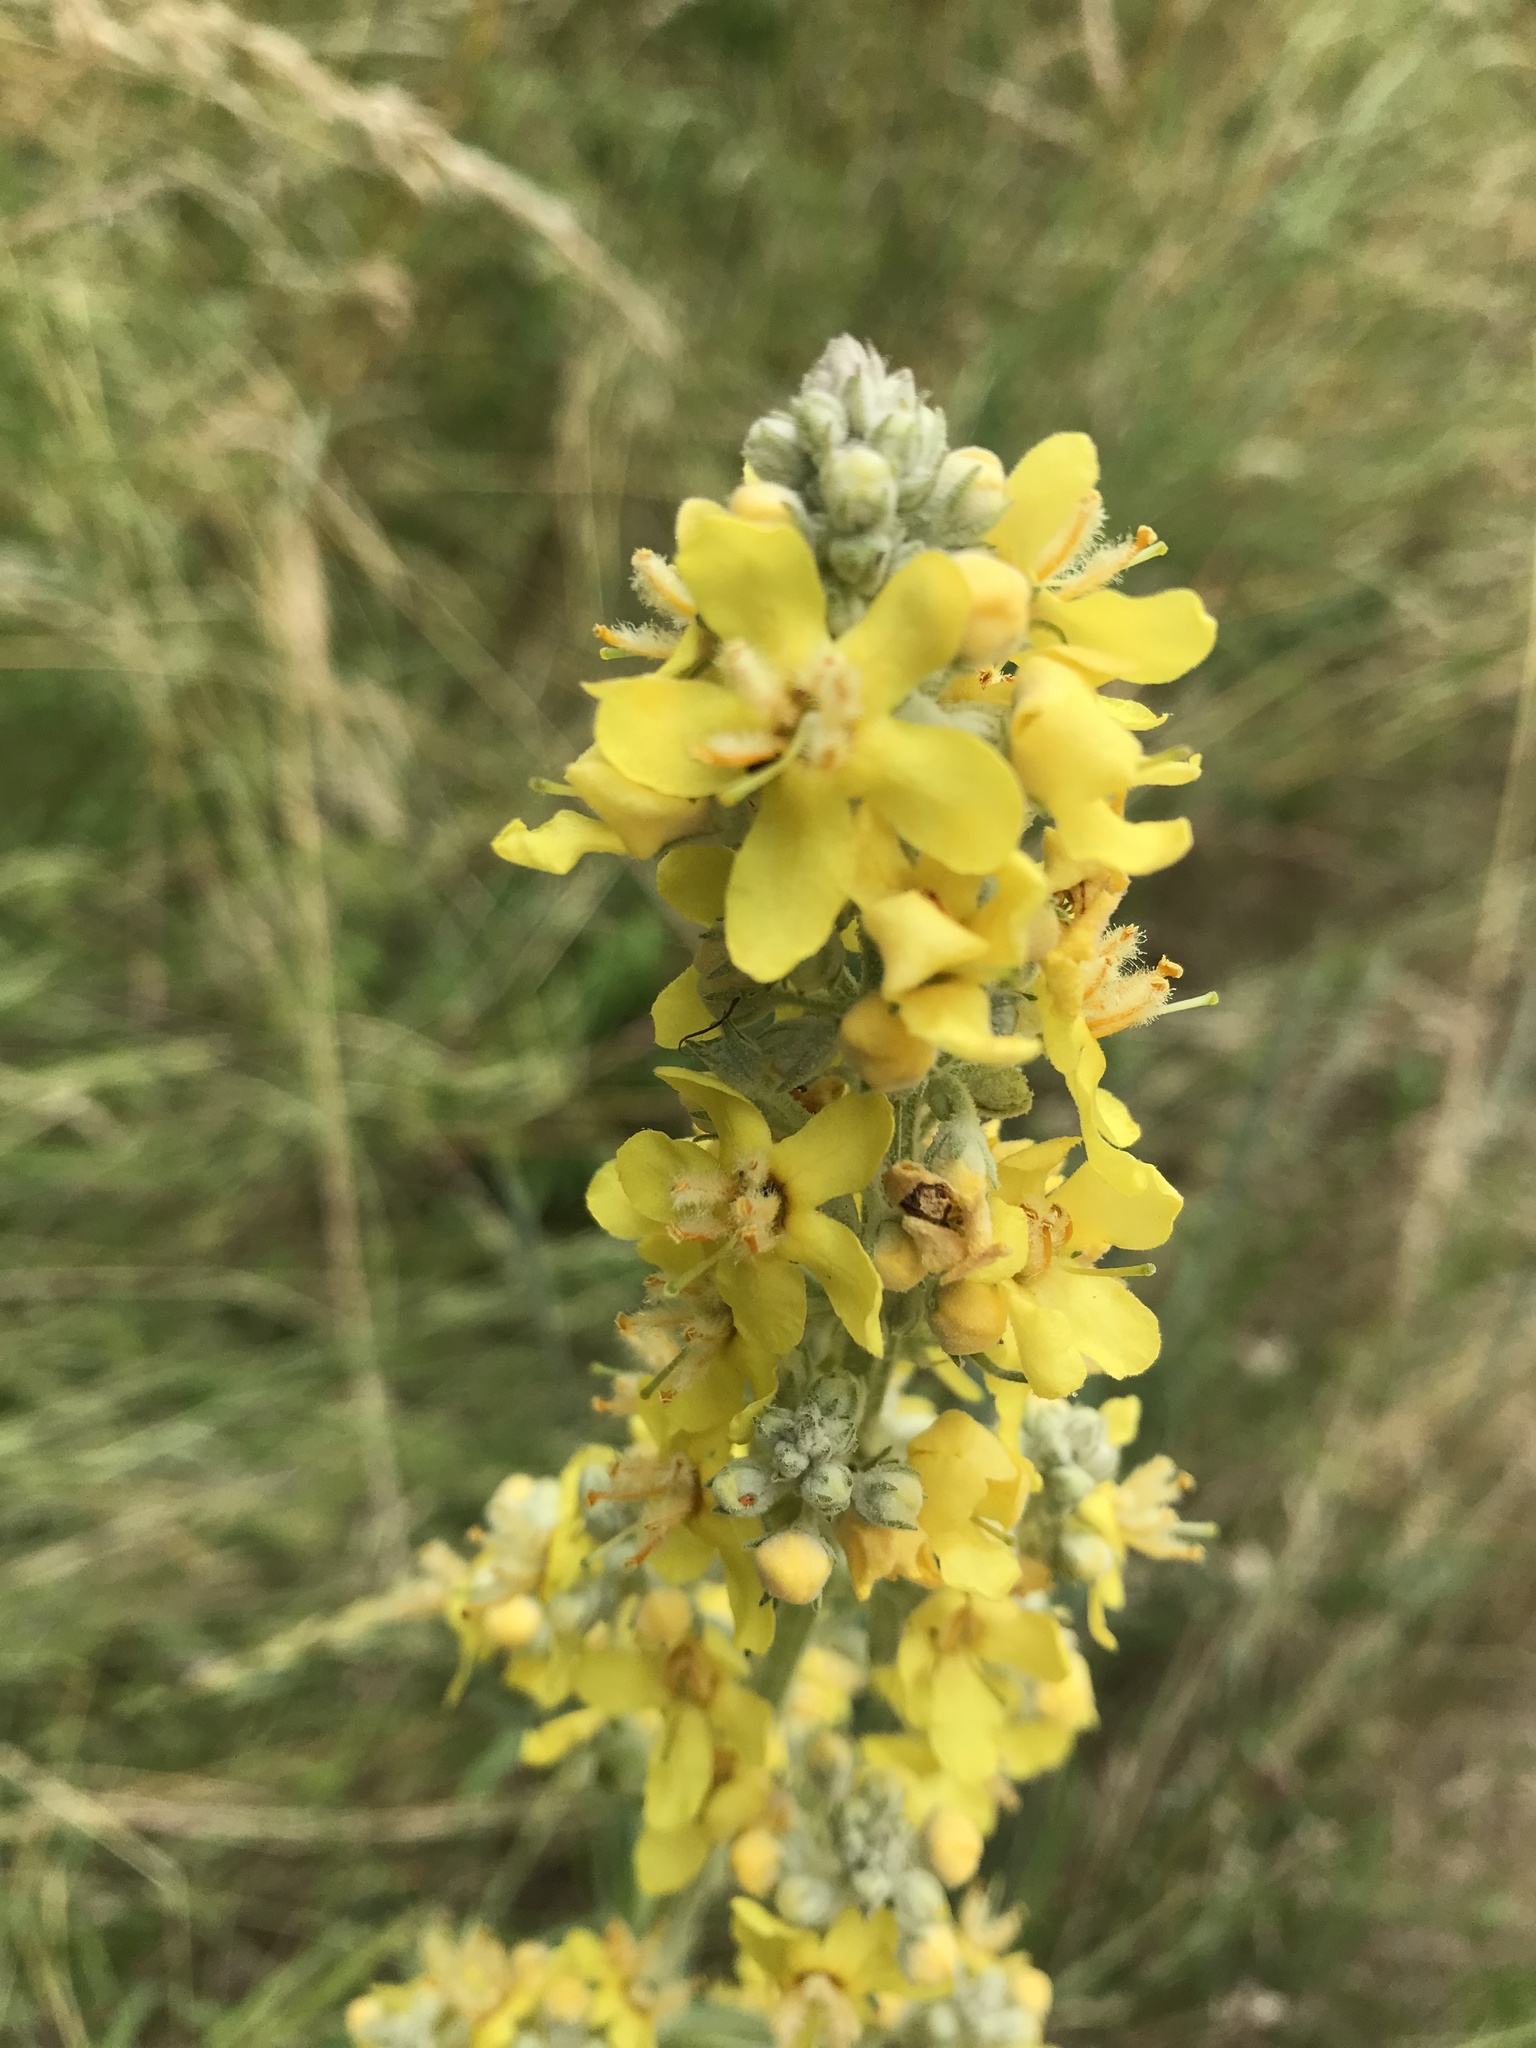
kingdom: Plantae
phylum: Tracheophyta
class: Magnoliopsida
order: Lamiales
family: Scrophulariaceae
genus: Verbascum
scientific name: Verbascum lychnitis
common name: White mullein
